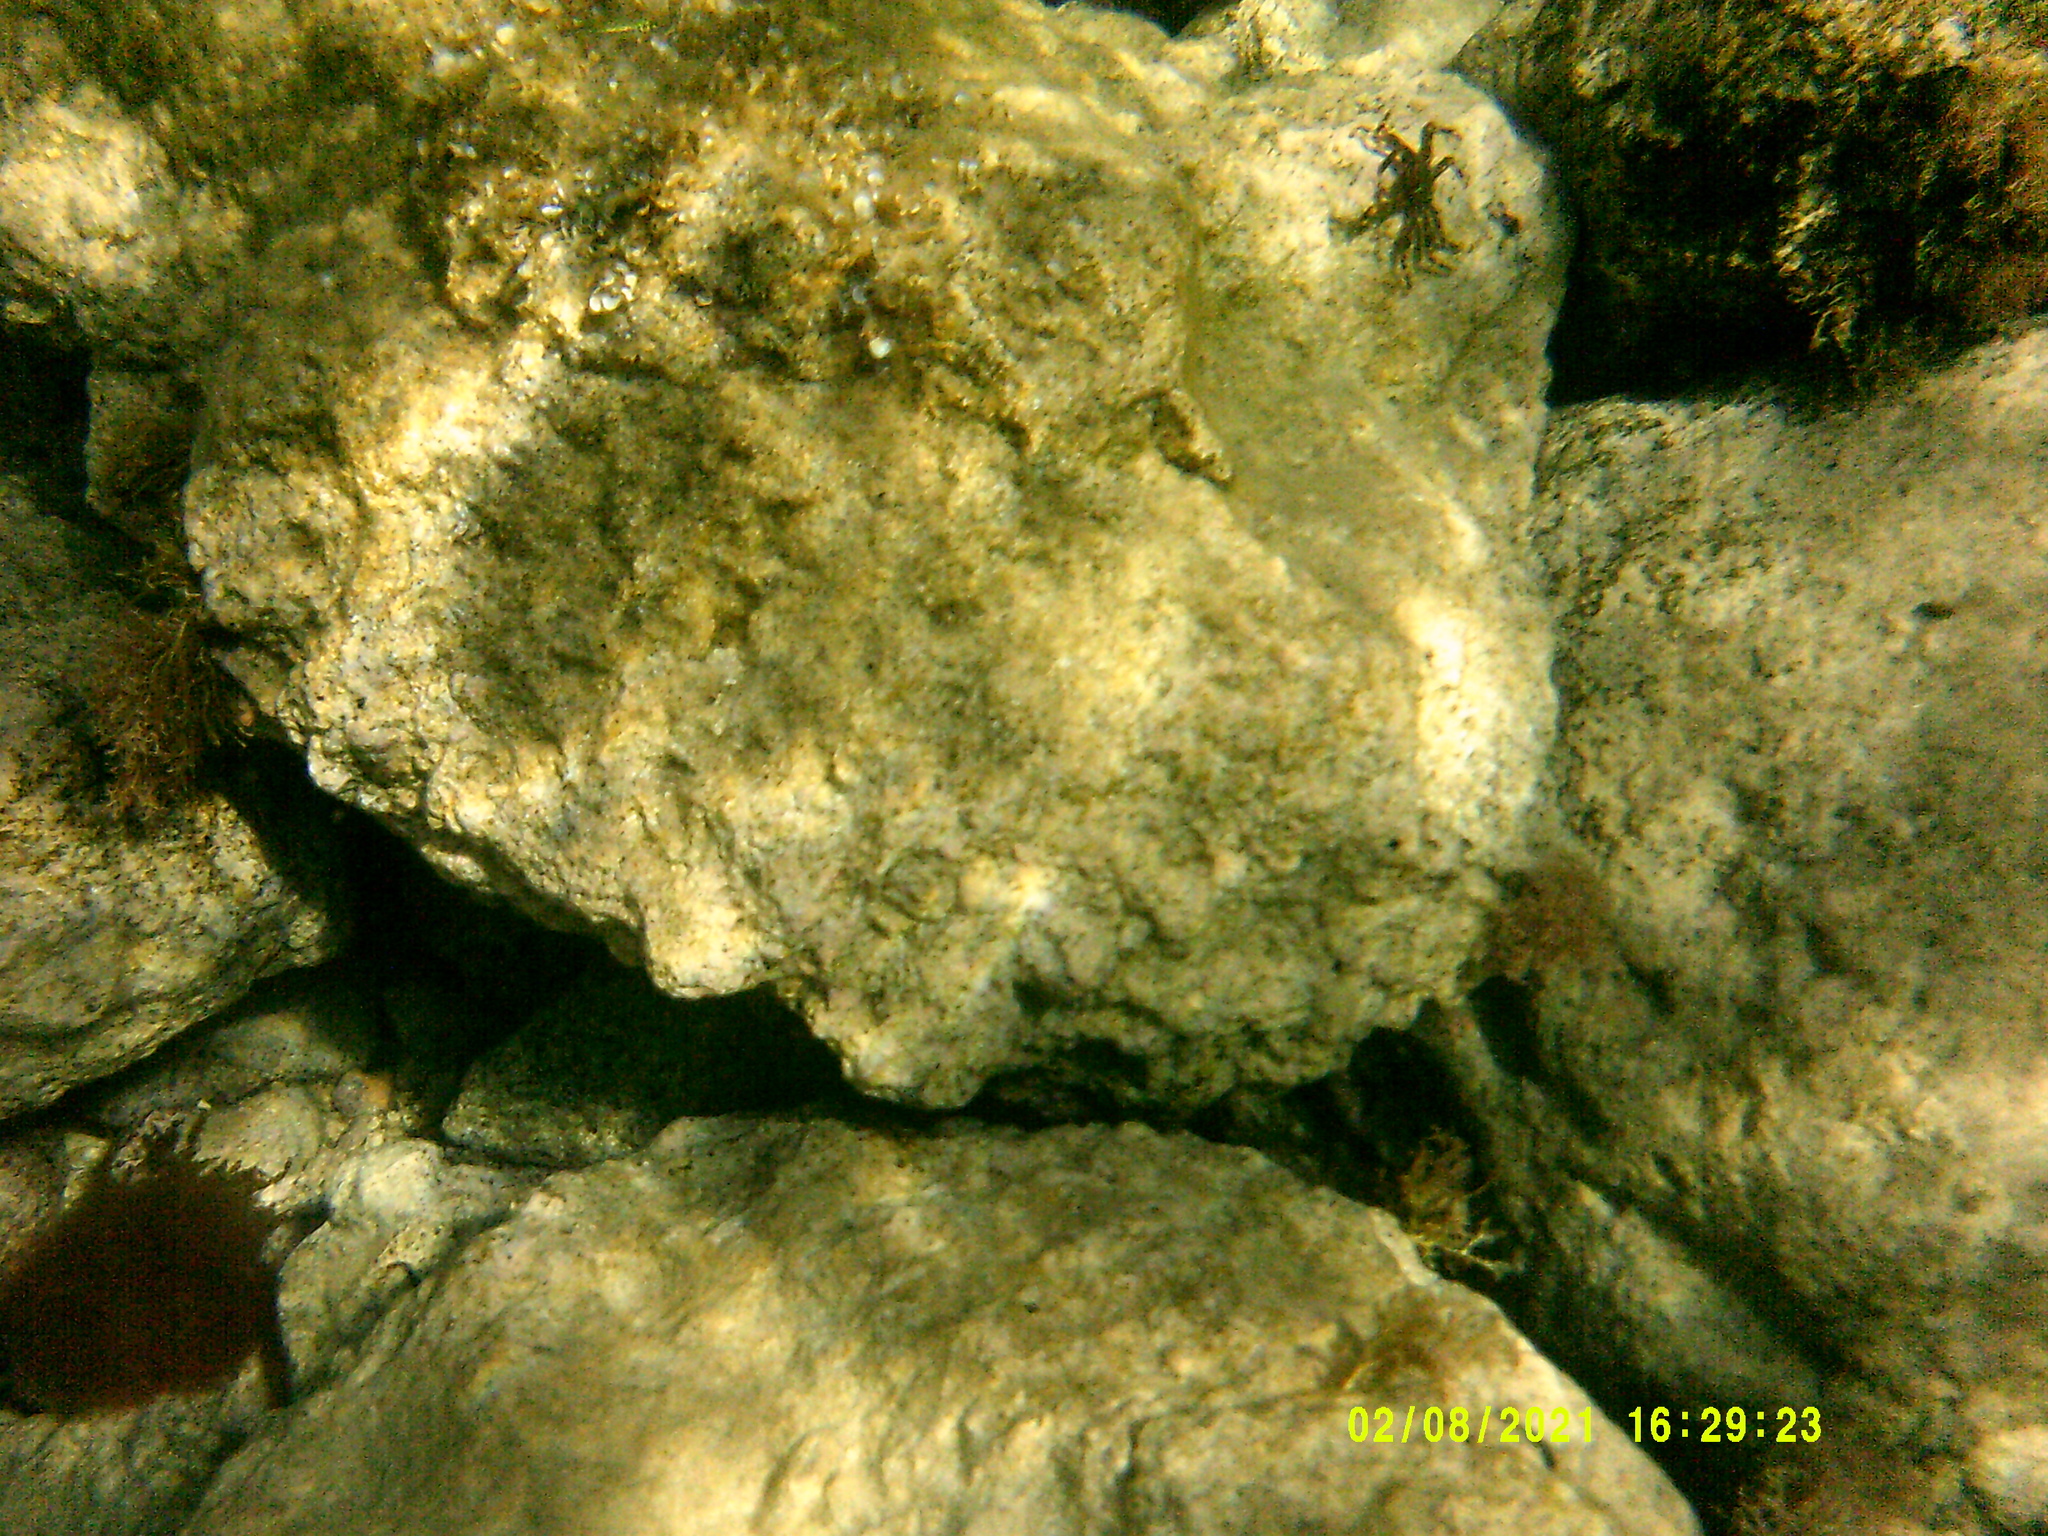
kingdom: Animalia
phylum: Arthropoda
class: Malacostraca
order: Decapoda
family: Percnidae
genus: Percnon
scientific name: Percnon gibbesi
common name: Nimble spray crab
